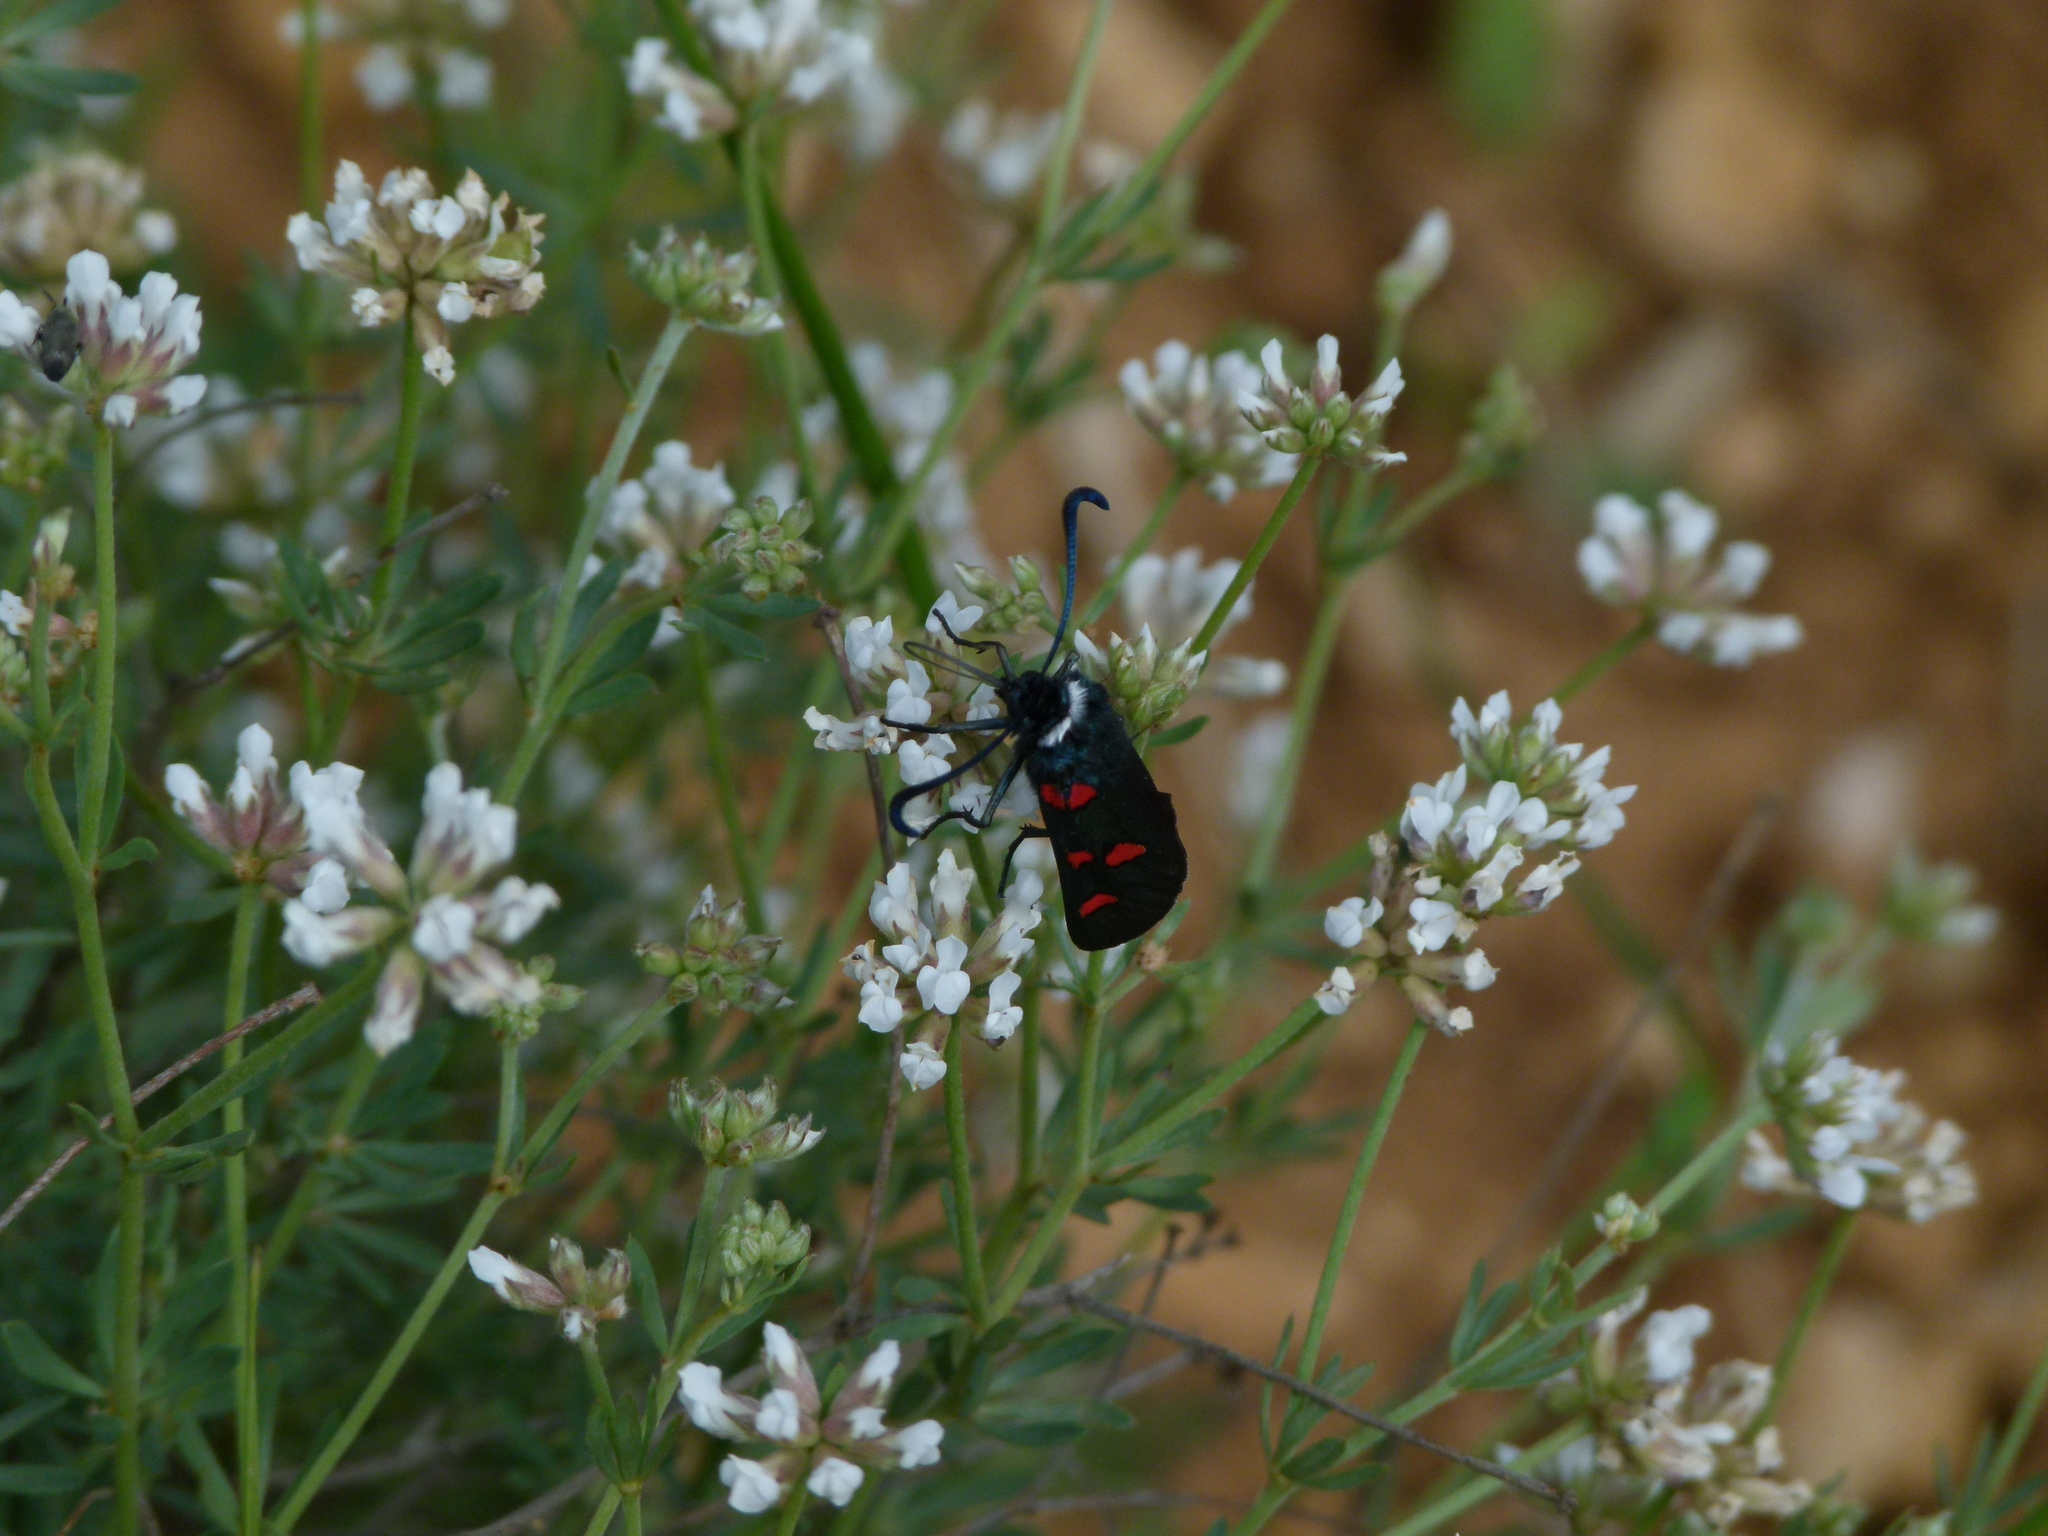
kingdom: Animalia
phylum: Arthropoda
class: Insecta
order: Lepidoptera
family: Zygaenidae
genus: Zygaena
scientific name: Zygaena lavandulae
